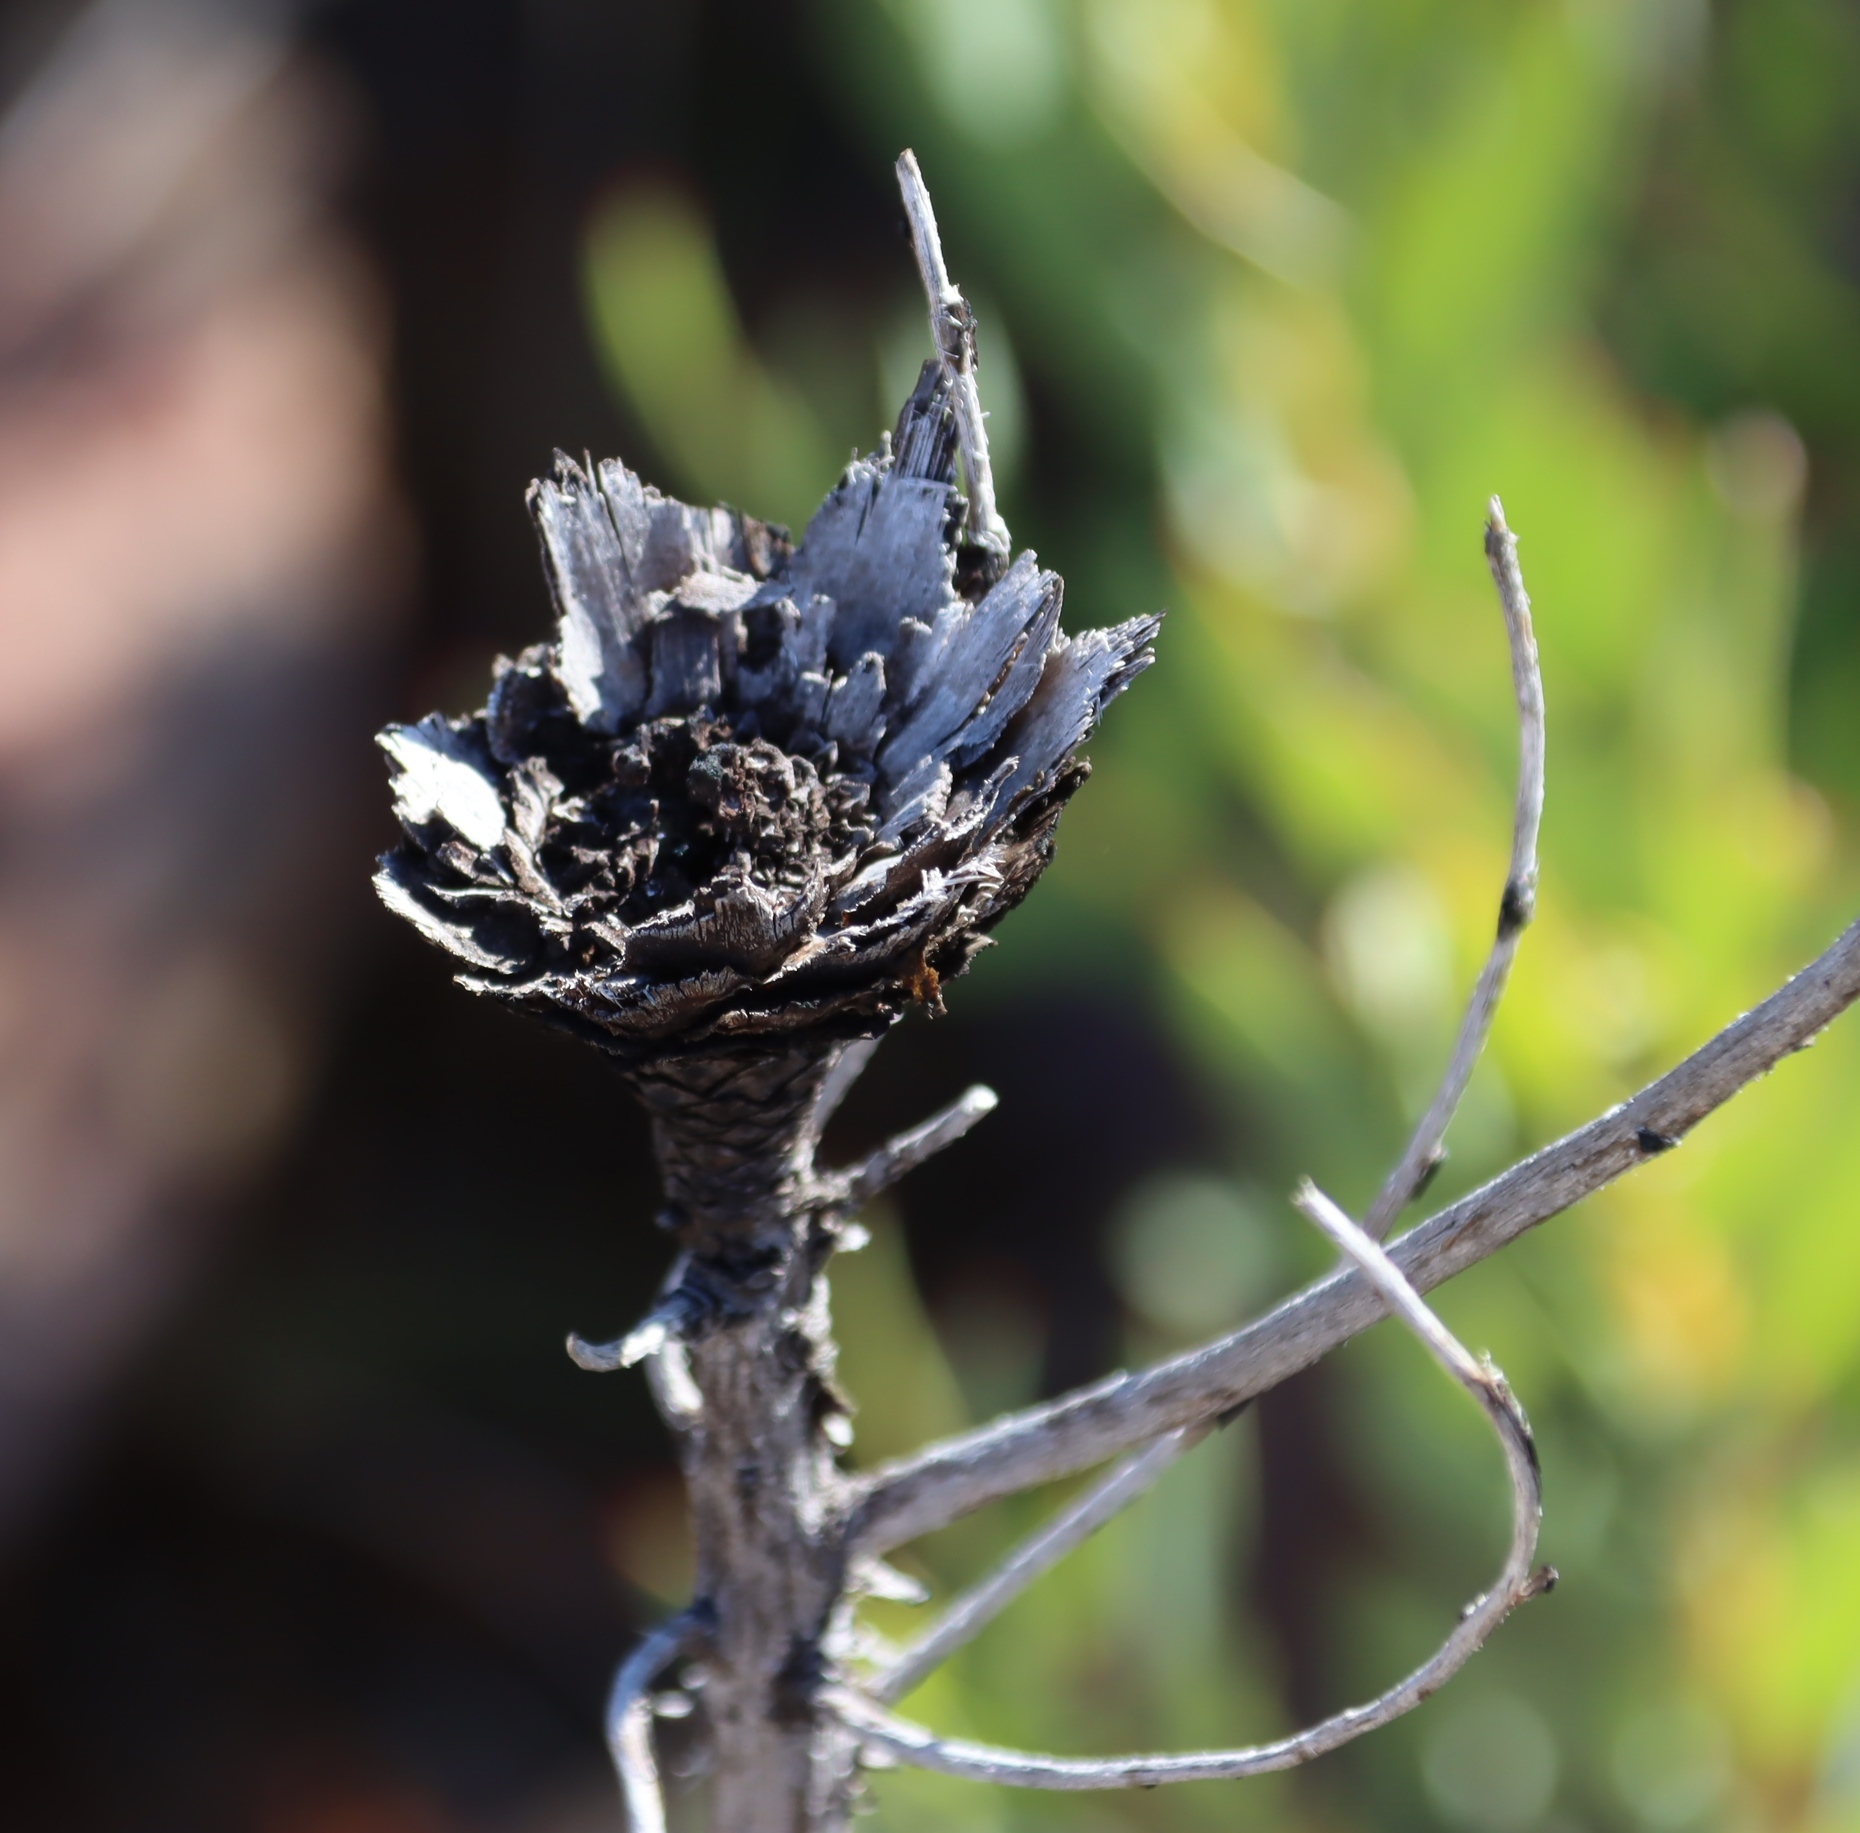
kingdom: Plantae
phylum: Tracheophyta
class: Magnoliopsida
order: Proteales
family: Proteaceae
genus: Protea
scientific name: Protea repens
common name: Sugarbush
